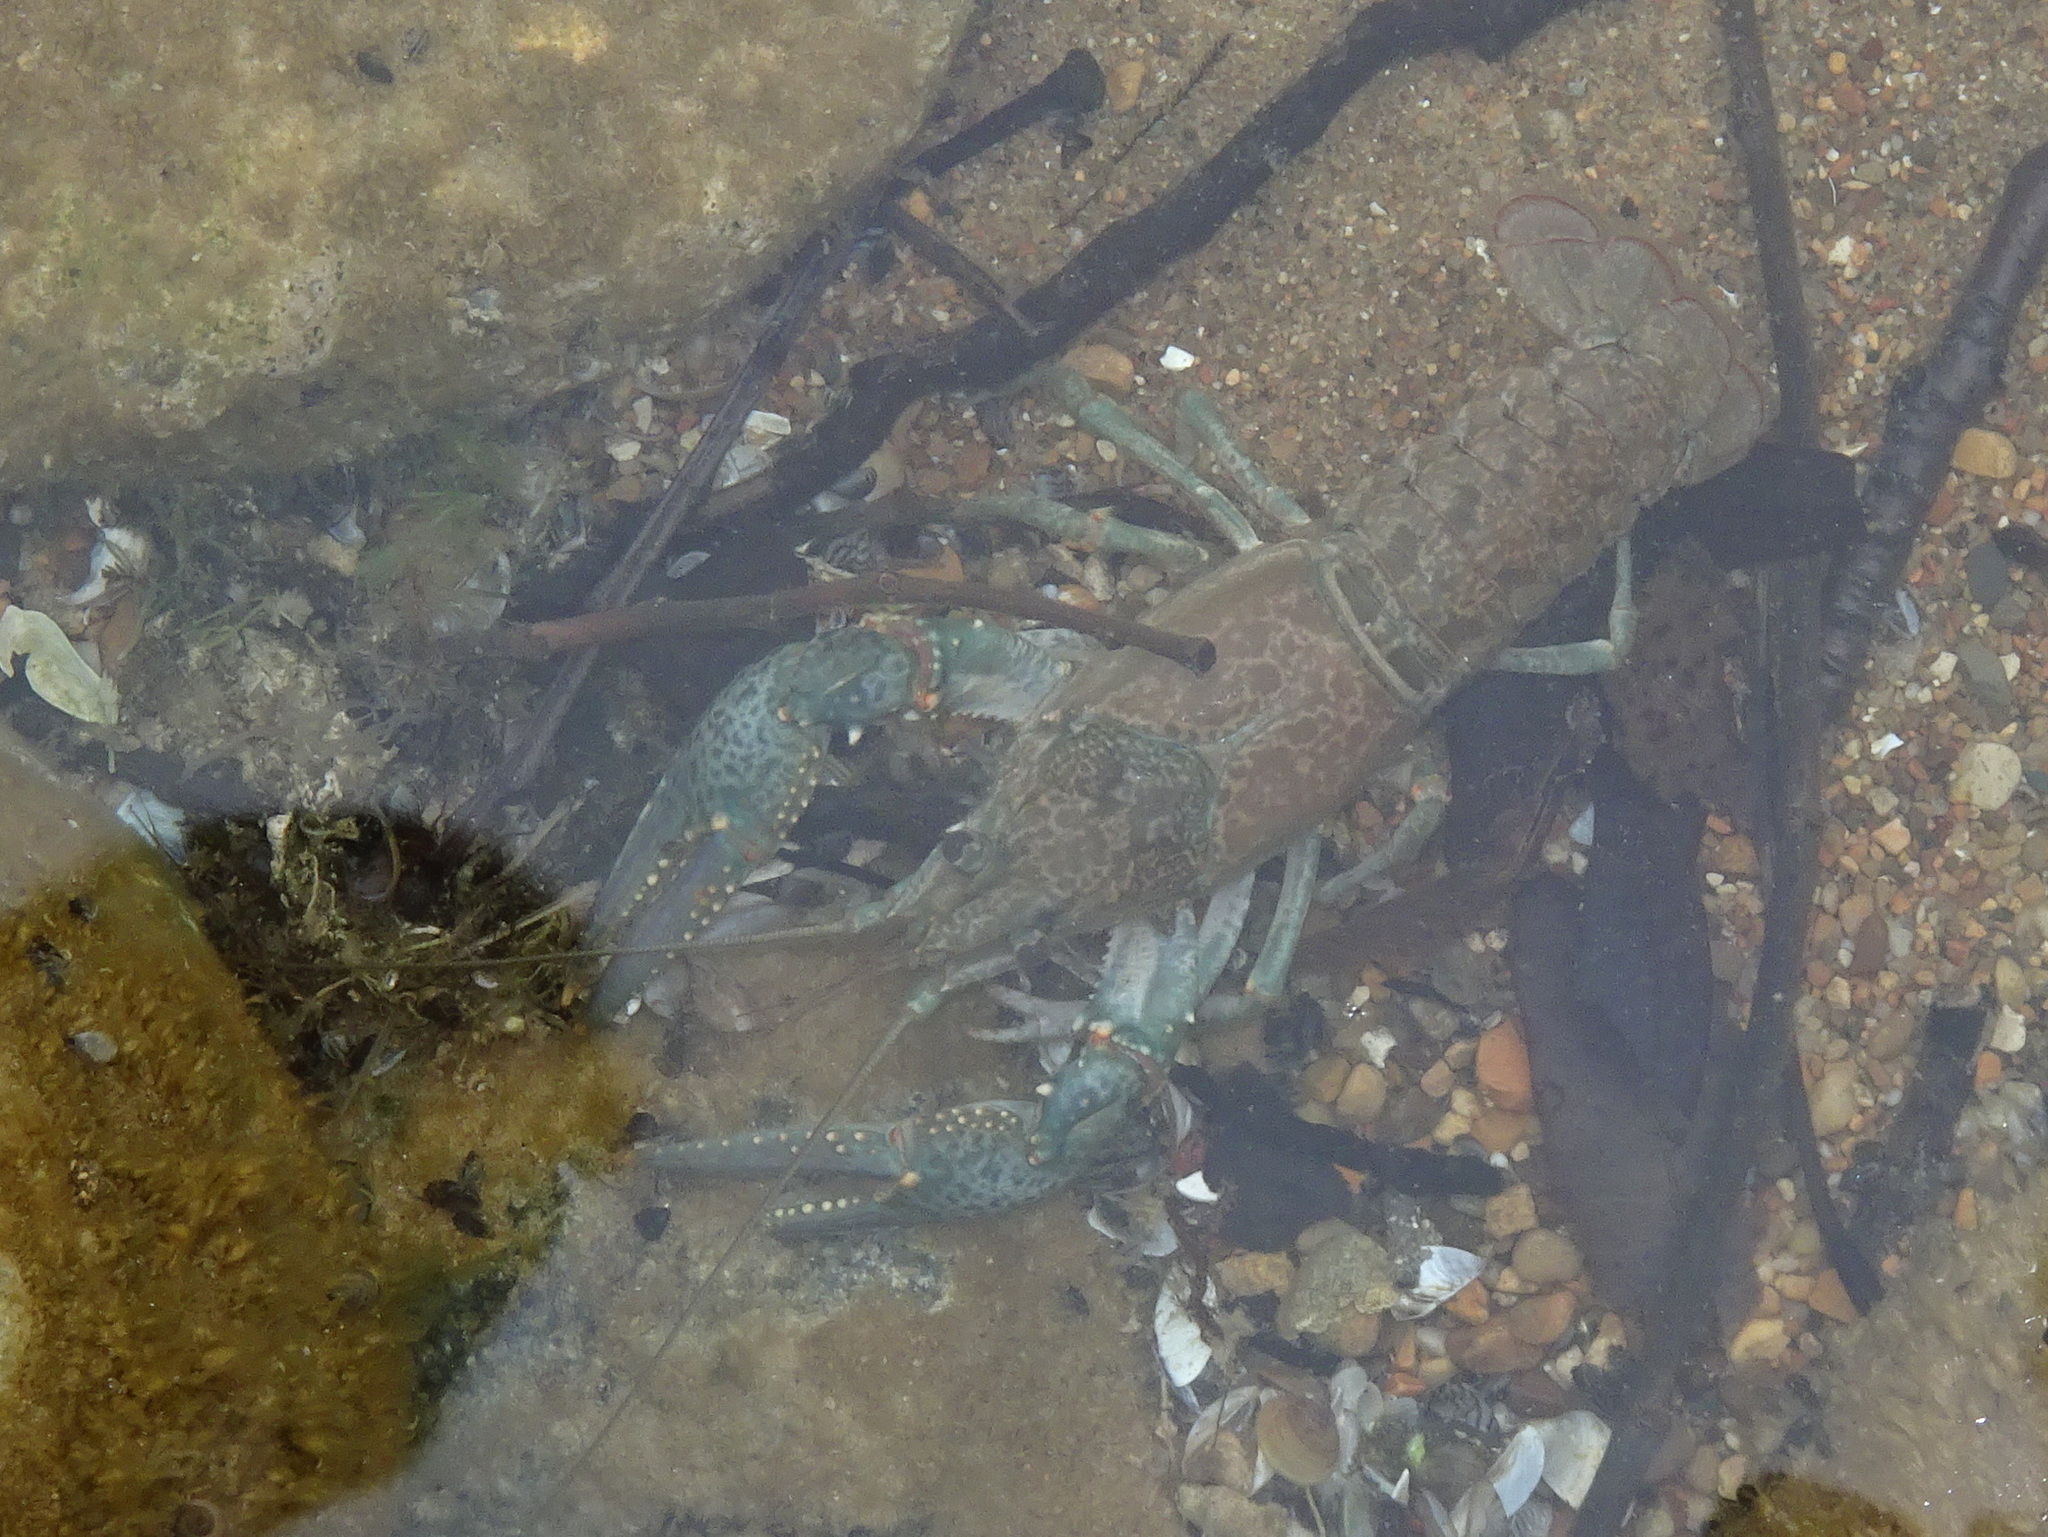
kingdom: Animalia
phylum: Arthropoda
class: Malacostraca
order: Decapoda
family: Cambaridae
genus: Faxonius
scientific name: Faxonius virilis
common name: Virile crayfish
